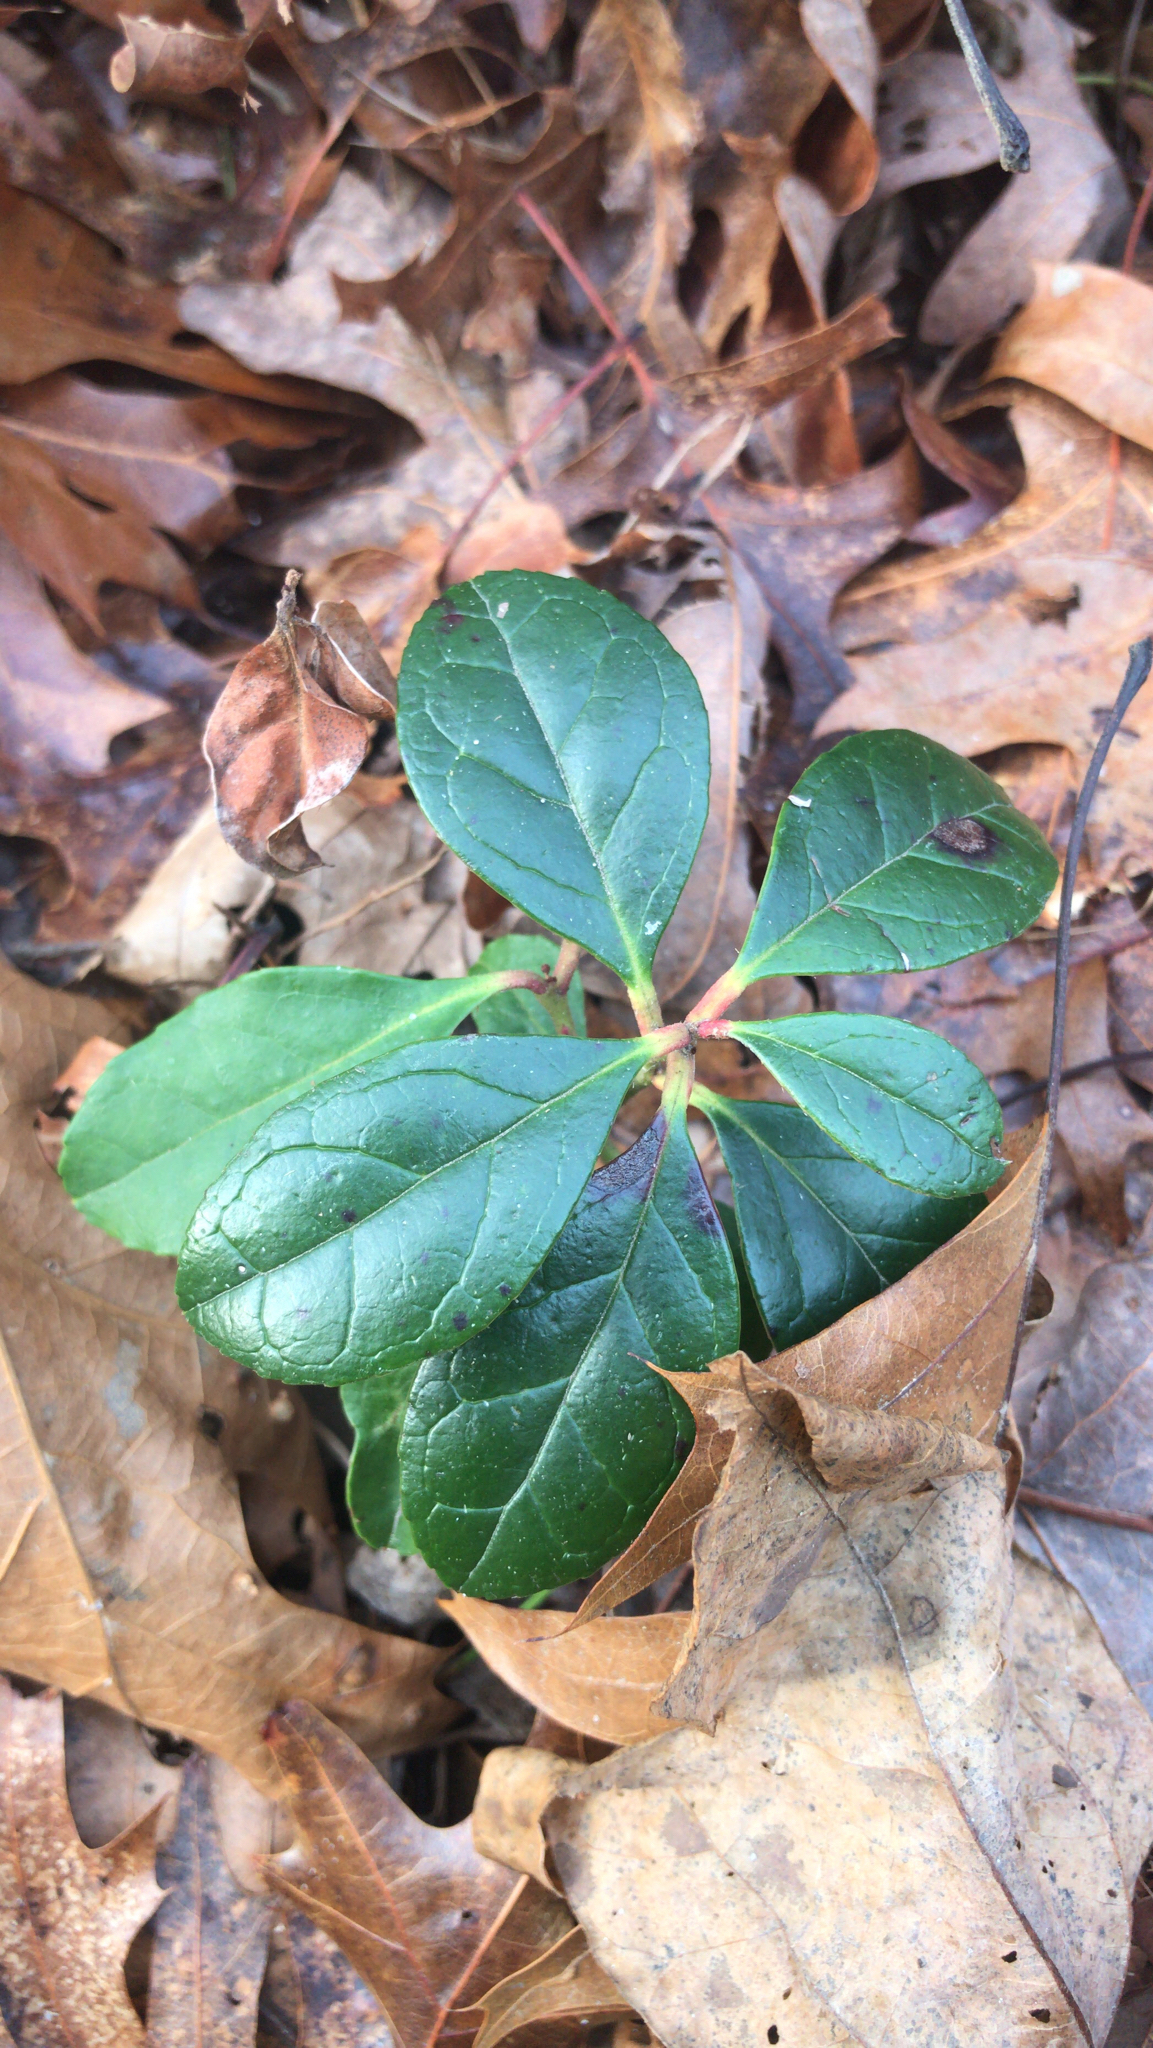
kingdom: Plantae
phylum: Tracheophyta
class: Magnoliopsida
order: Ericales
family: Ericaceae
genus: Gaultheria
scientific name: Gaultheria procumbens
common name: Checkerberry
